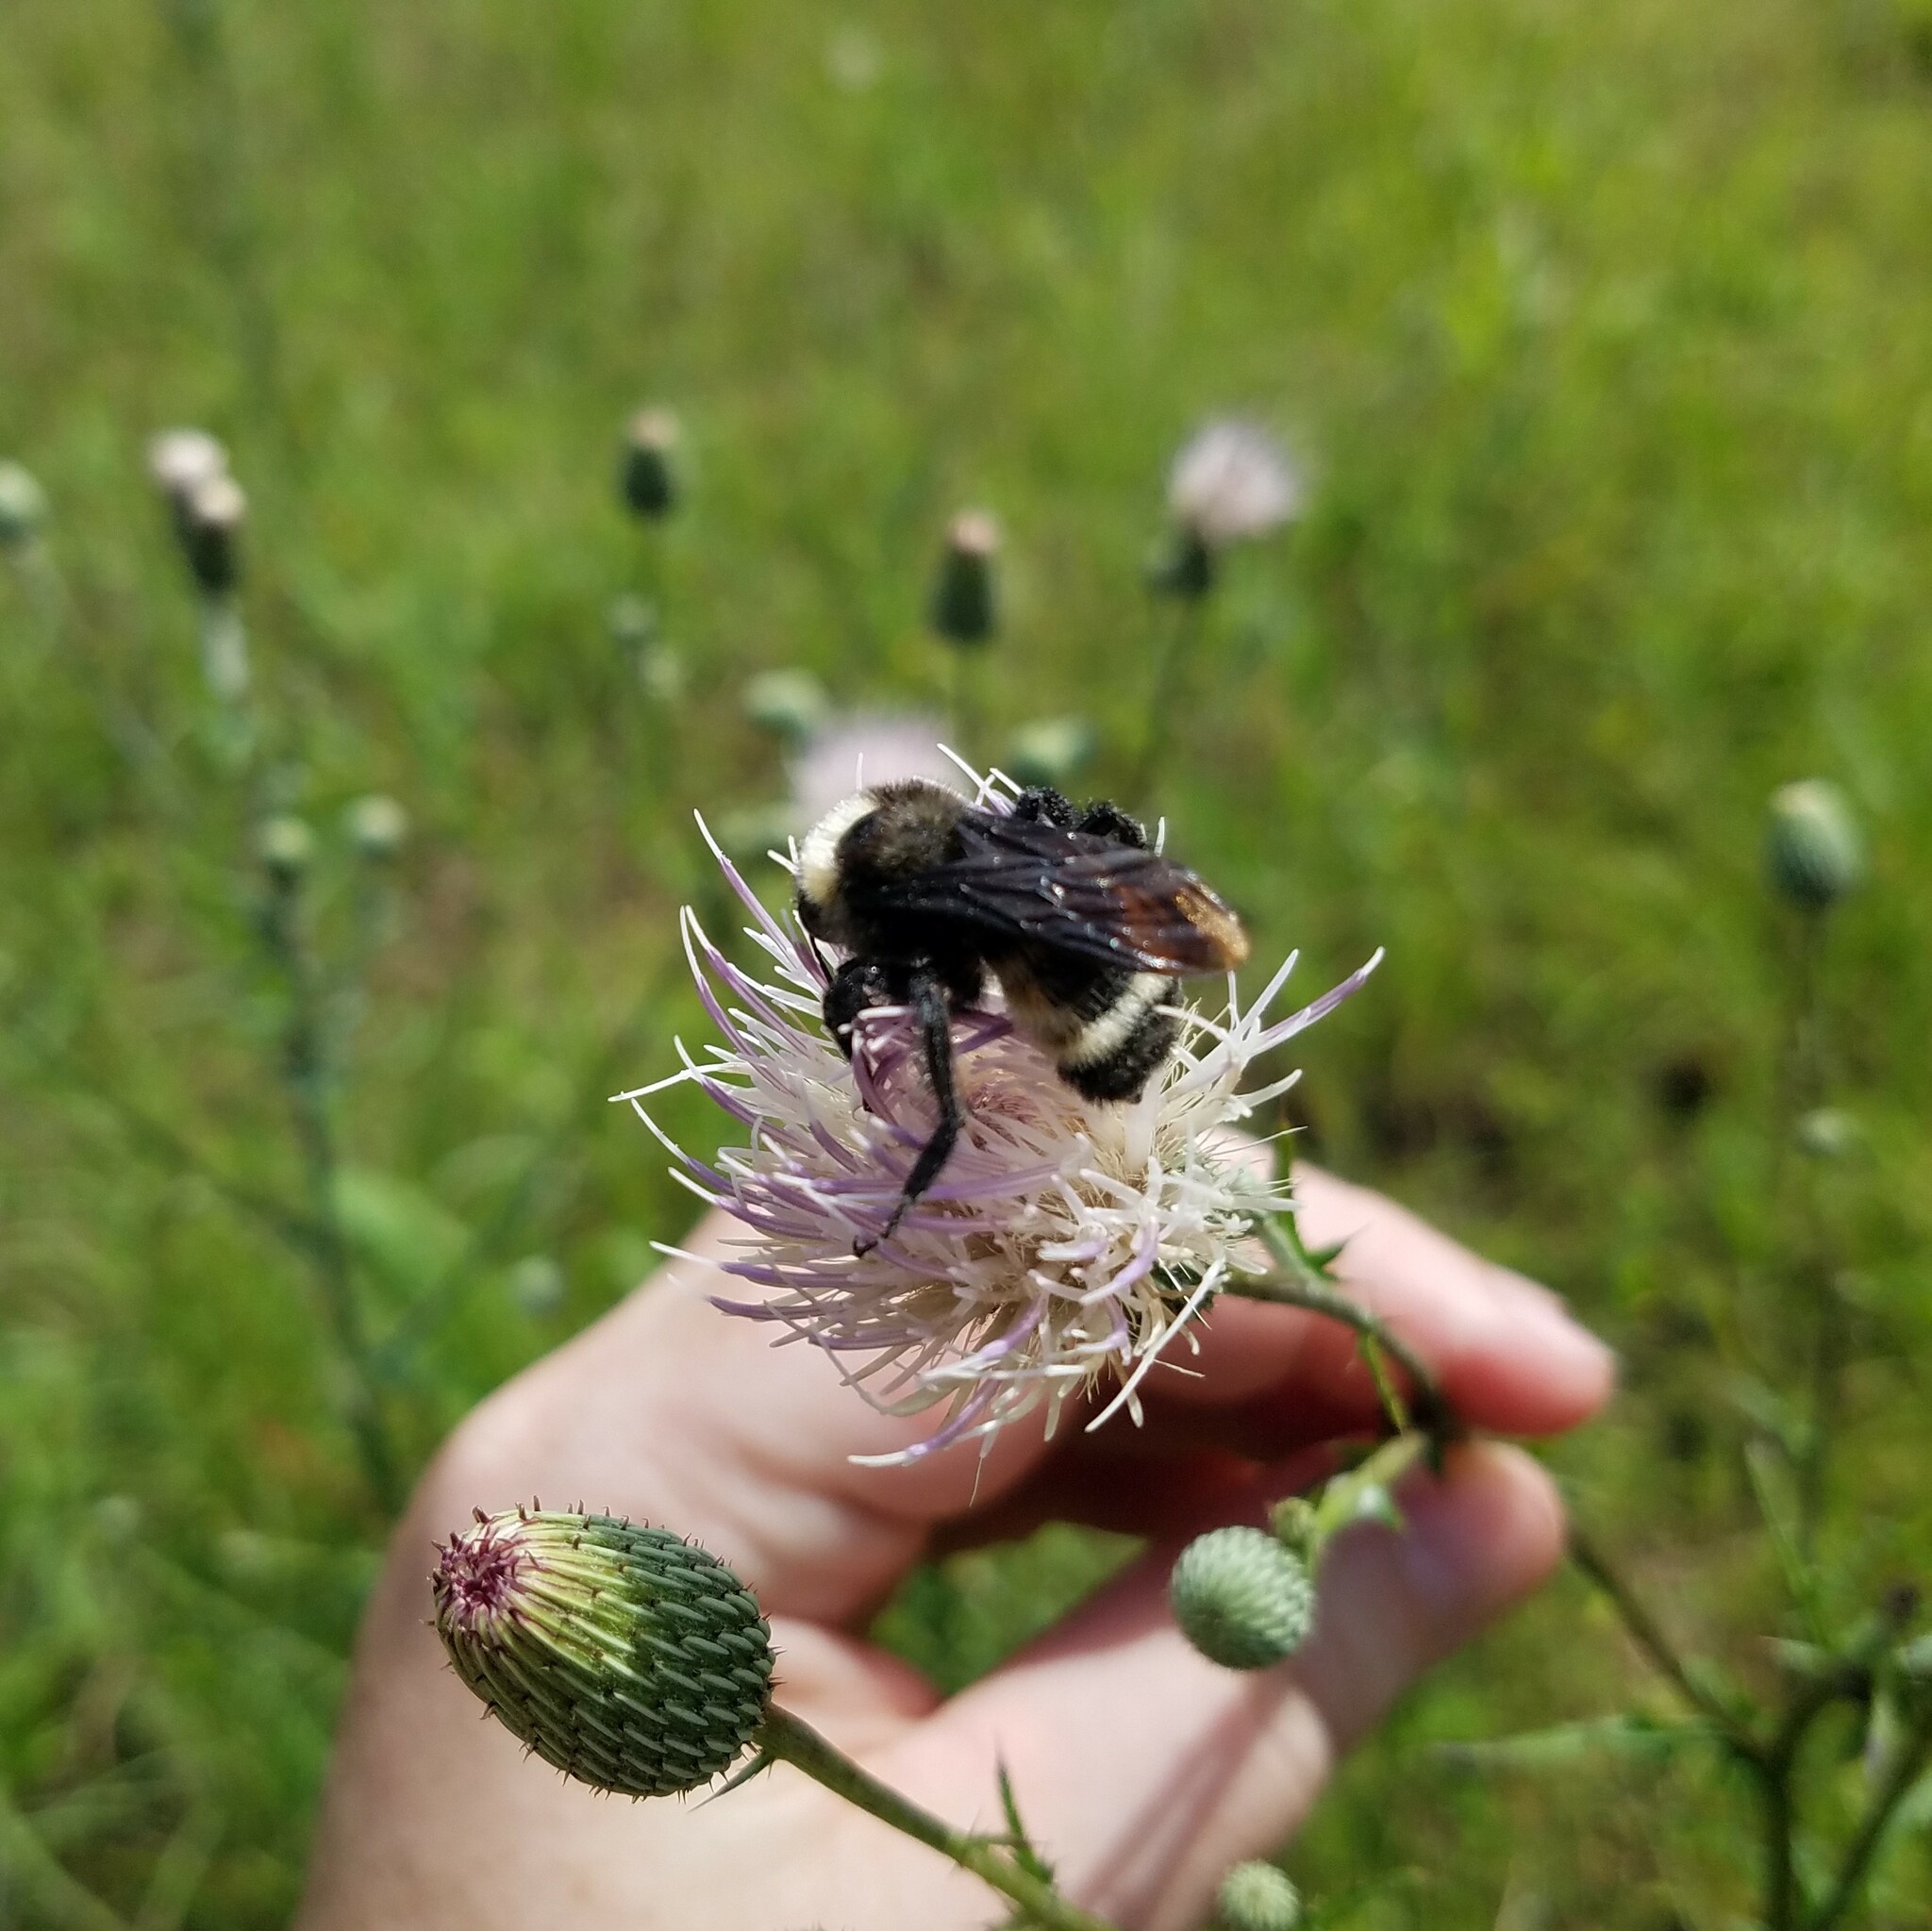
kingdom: Animalia
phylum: Arthropoda
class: Insecta
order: Hymenoptera
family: Apidae
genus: Bombus
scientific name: Bombus pensylvanicus
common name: Bumble bee
